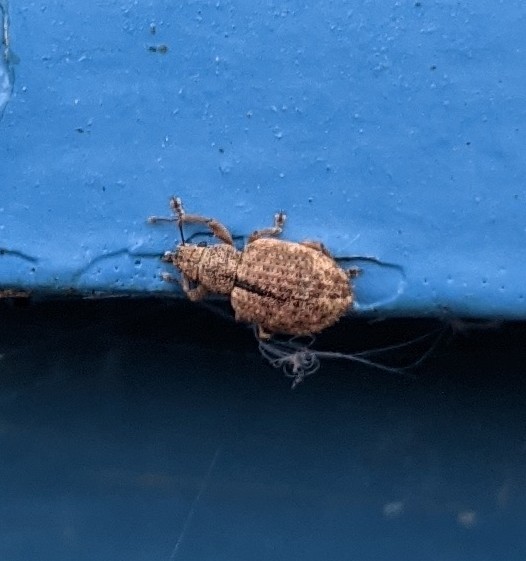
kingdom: Animalia
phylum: Arthropoda
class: Insecta
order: Coleoptera
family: Curculionidae
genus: Strophosoma
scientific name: Strophosoma melanogrammum
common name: Weevil
